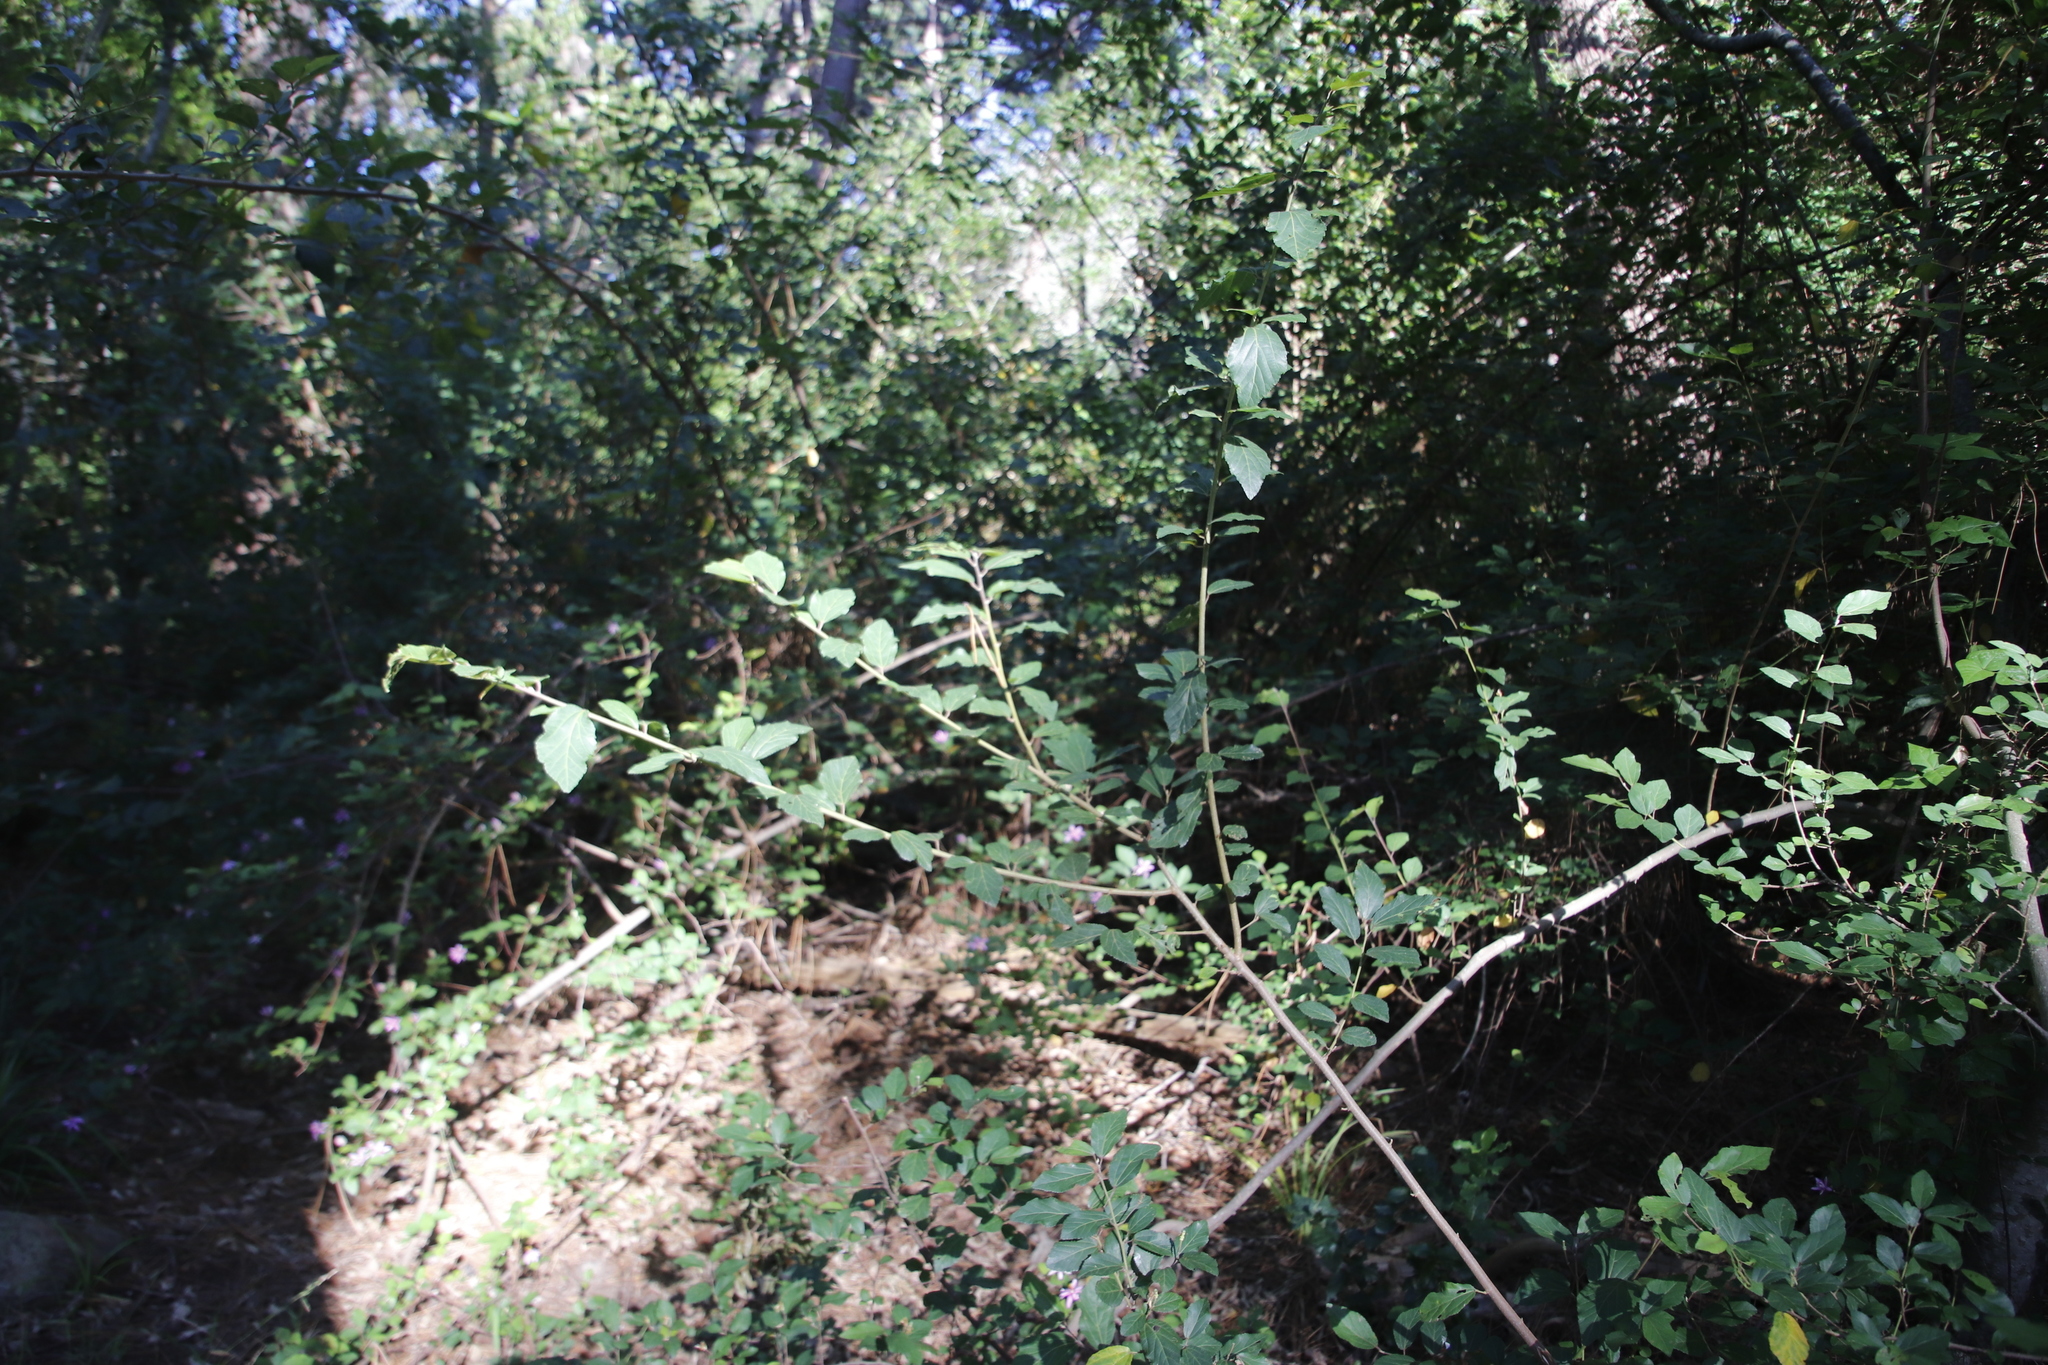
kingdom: Plantae
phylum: Tracheophyta
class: Magnoliopsida
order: Malvales
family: Malvaceae
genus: Grewia
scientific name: Grewia occidentalis
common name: Crossberry
